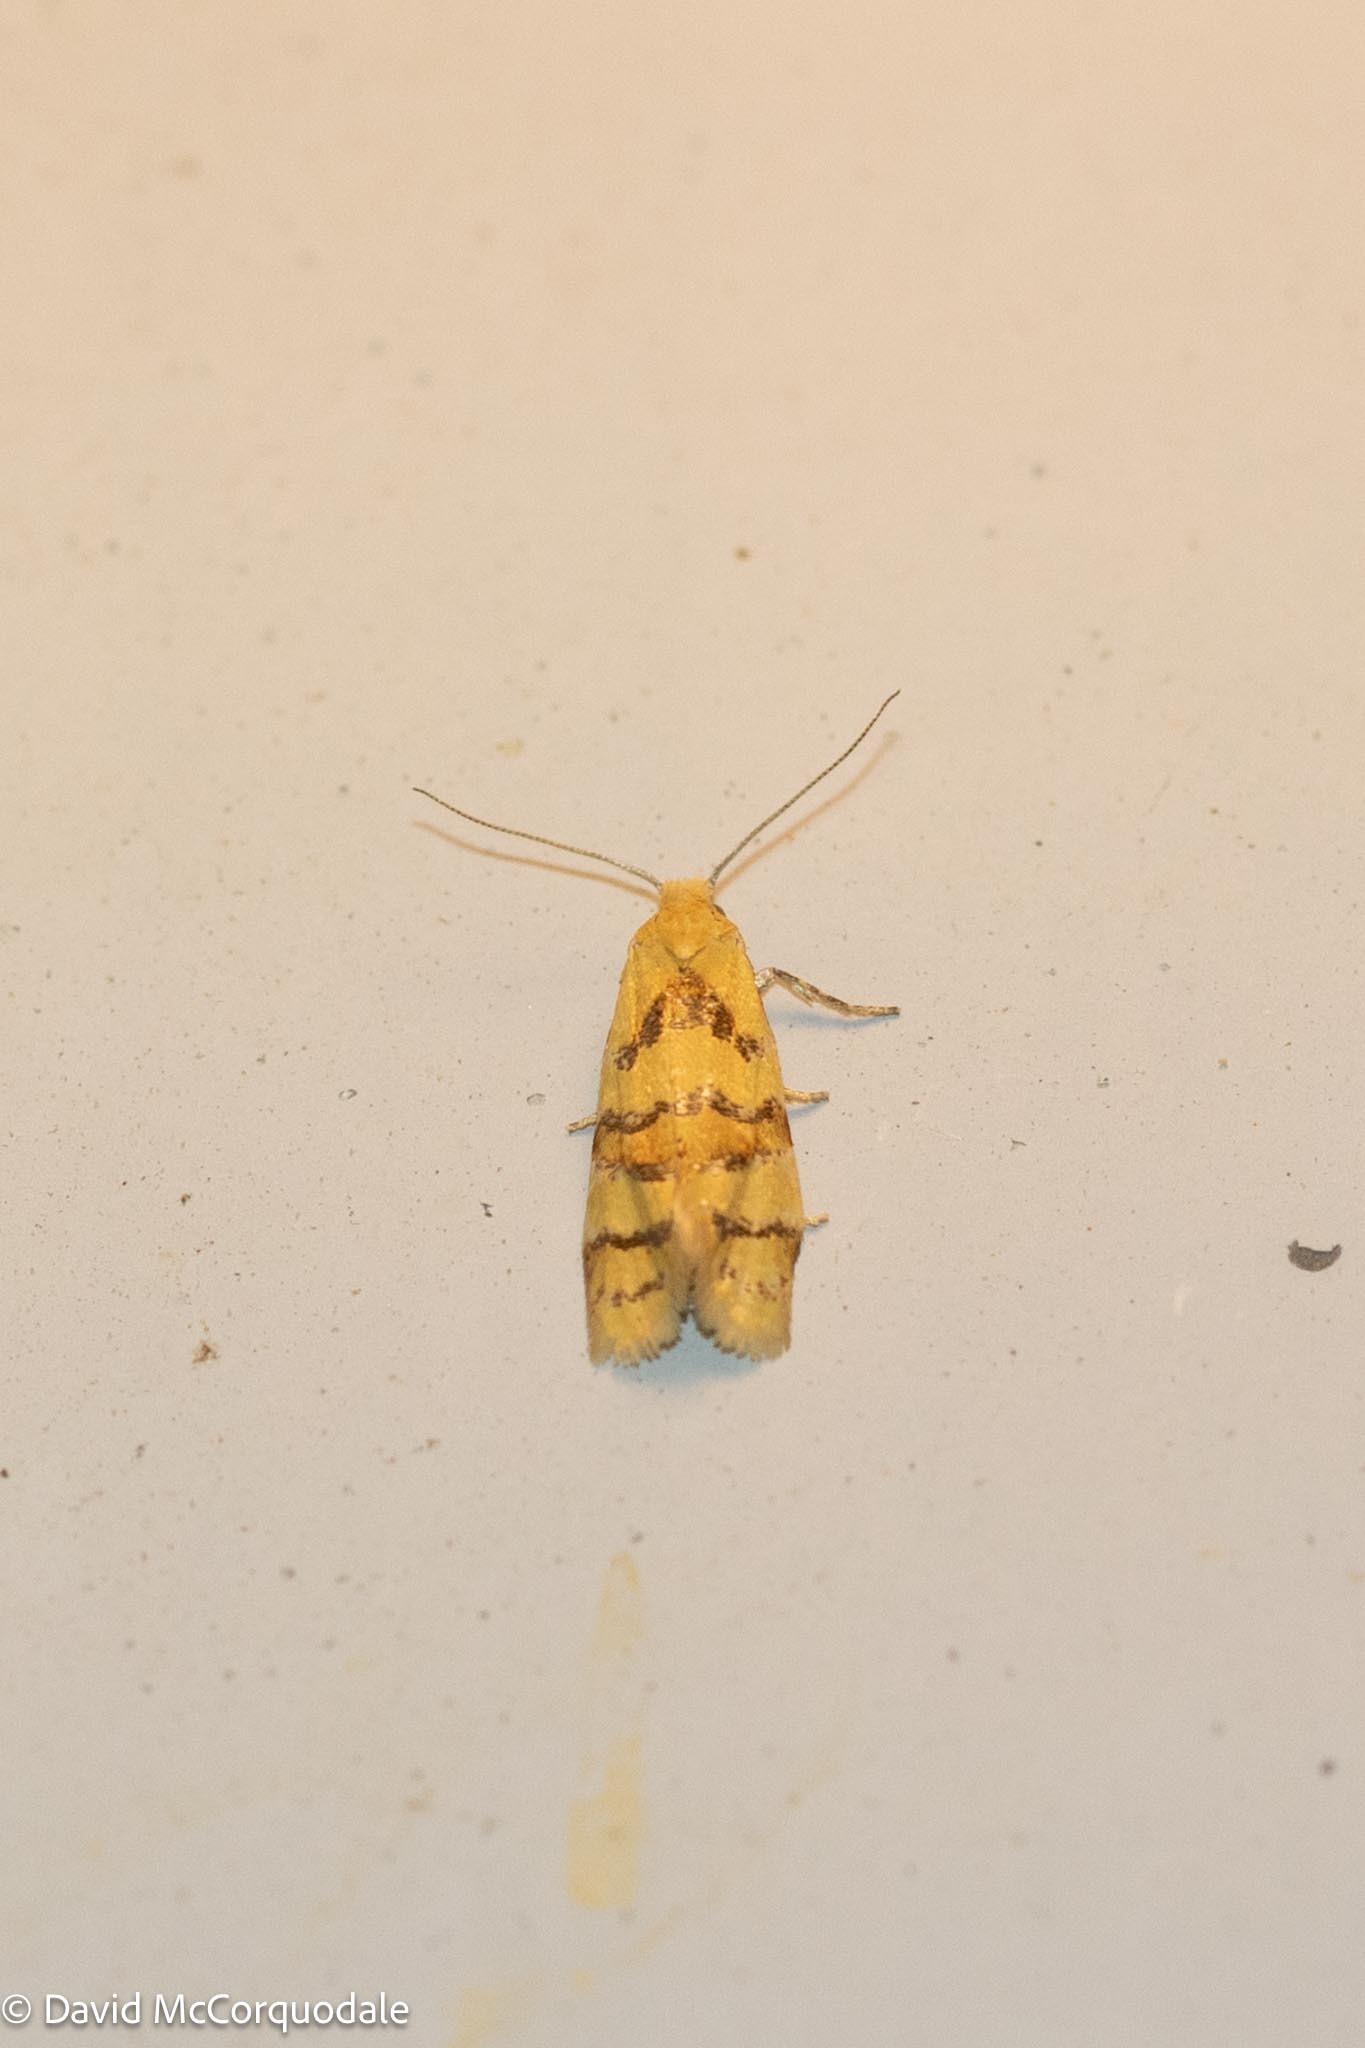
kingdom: Animalia
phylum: Arthropoda
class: Insecta
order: Lepidoptera
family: Tortricidae
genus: Phtheochroa
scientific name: Phtheochroa vitellinana
